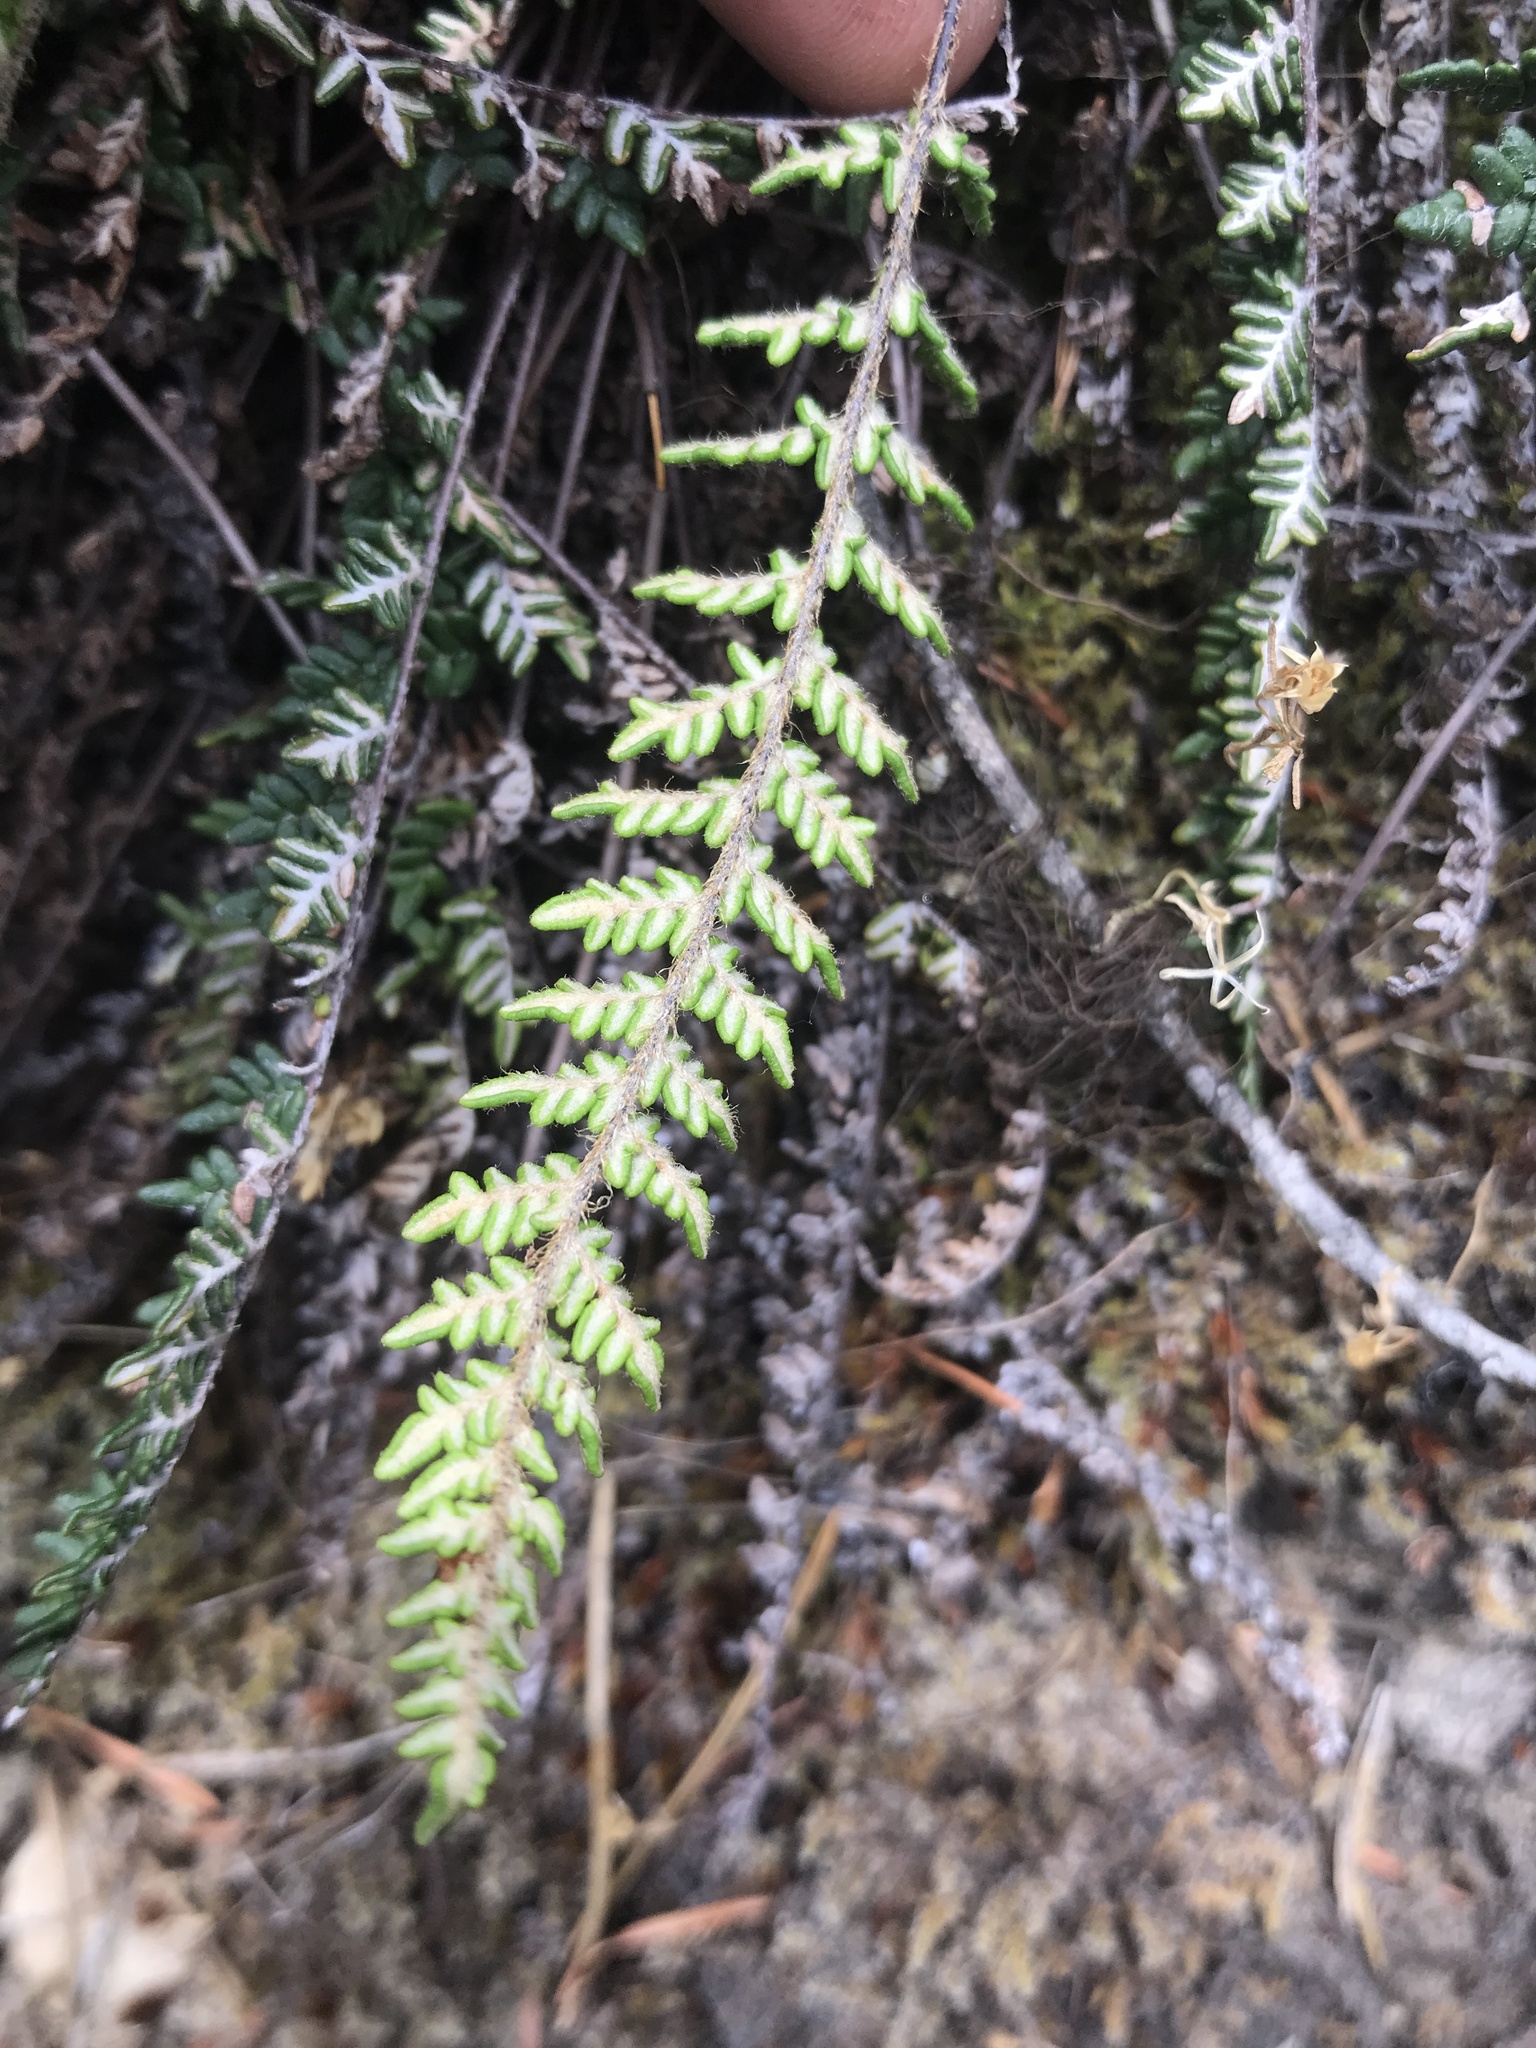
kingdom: Plantae
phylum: Tracheophyta
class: Polypodiopsida
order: Polypodiales
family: Pteridaceae
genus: Myriopteris
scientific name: Myriopteris gracillima
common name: Lace fern
